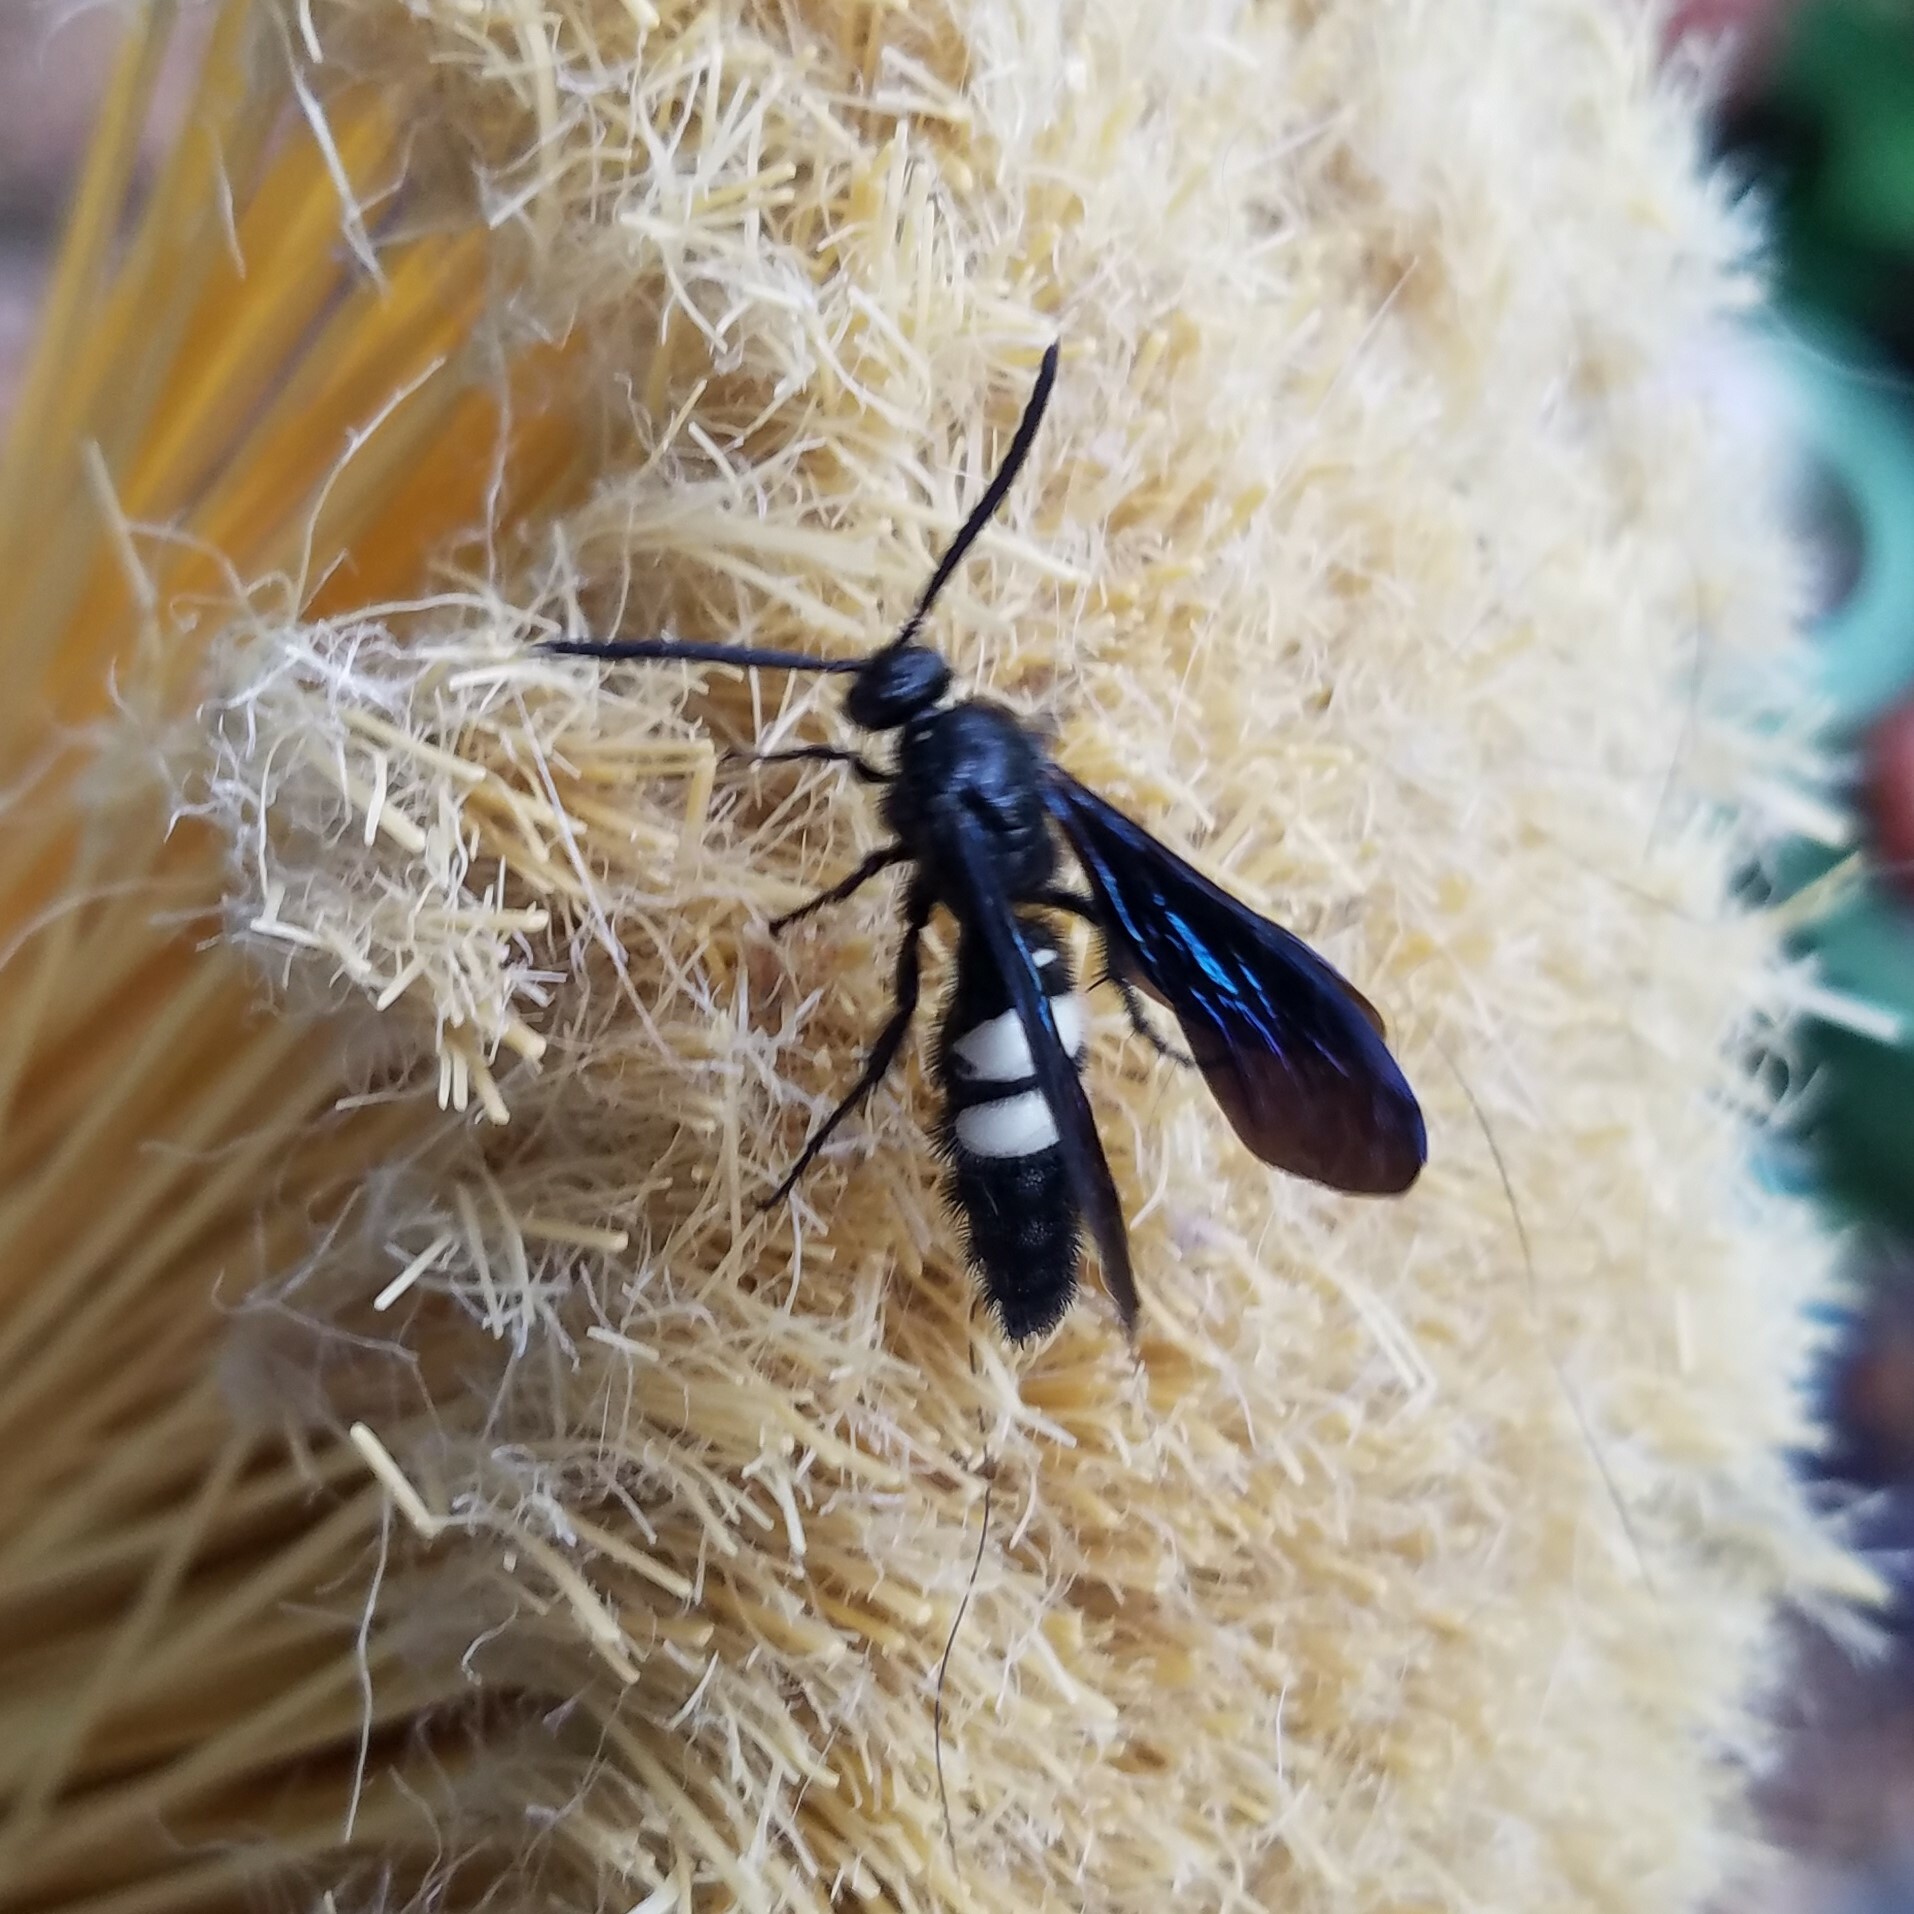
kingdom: Animalia
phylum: Arthropoda
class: Insecta
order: Hymenoptera
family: Scoliidae
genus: Scolia
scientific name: Scolia bicincta
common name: Double-banded scoliid wasp
